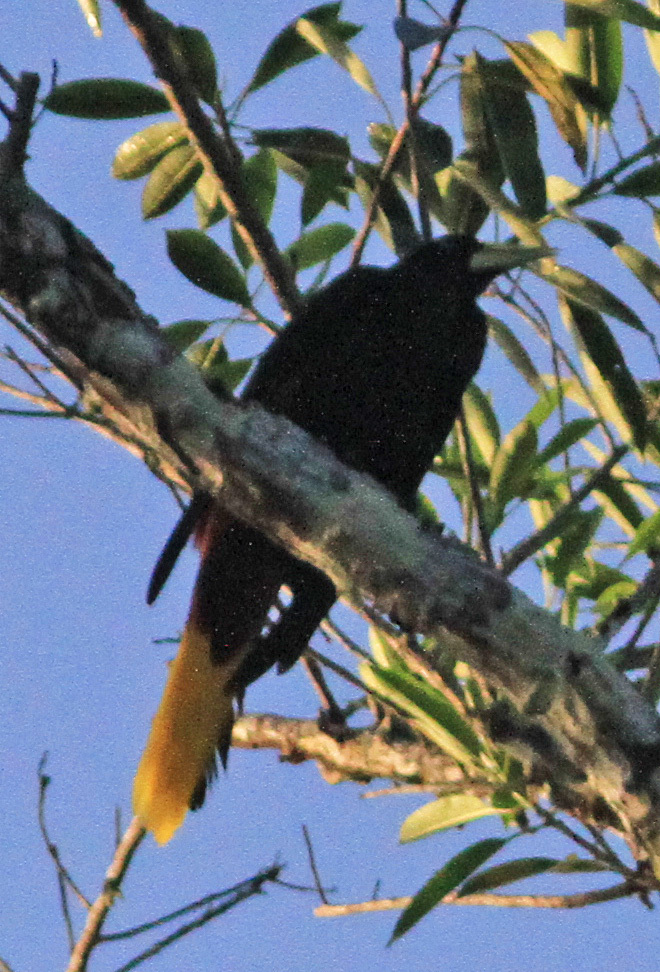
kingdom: Animalia
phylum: Chordata
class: Aves
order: Passeriformes
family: Icteridae
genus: Psarocolius
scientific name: Psarocolius decumanus
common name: Crested oropendola
